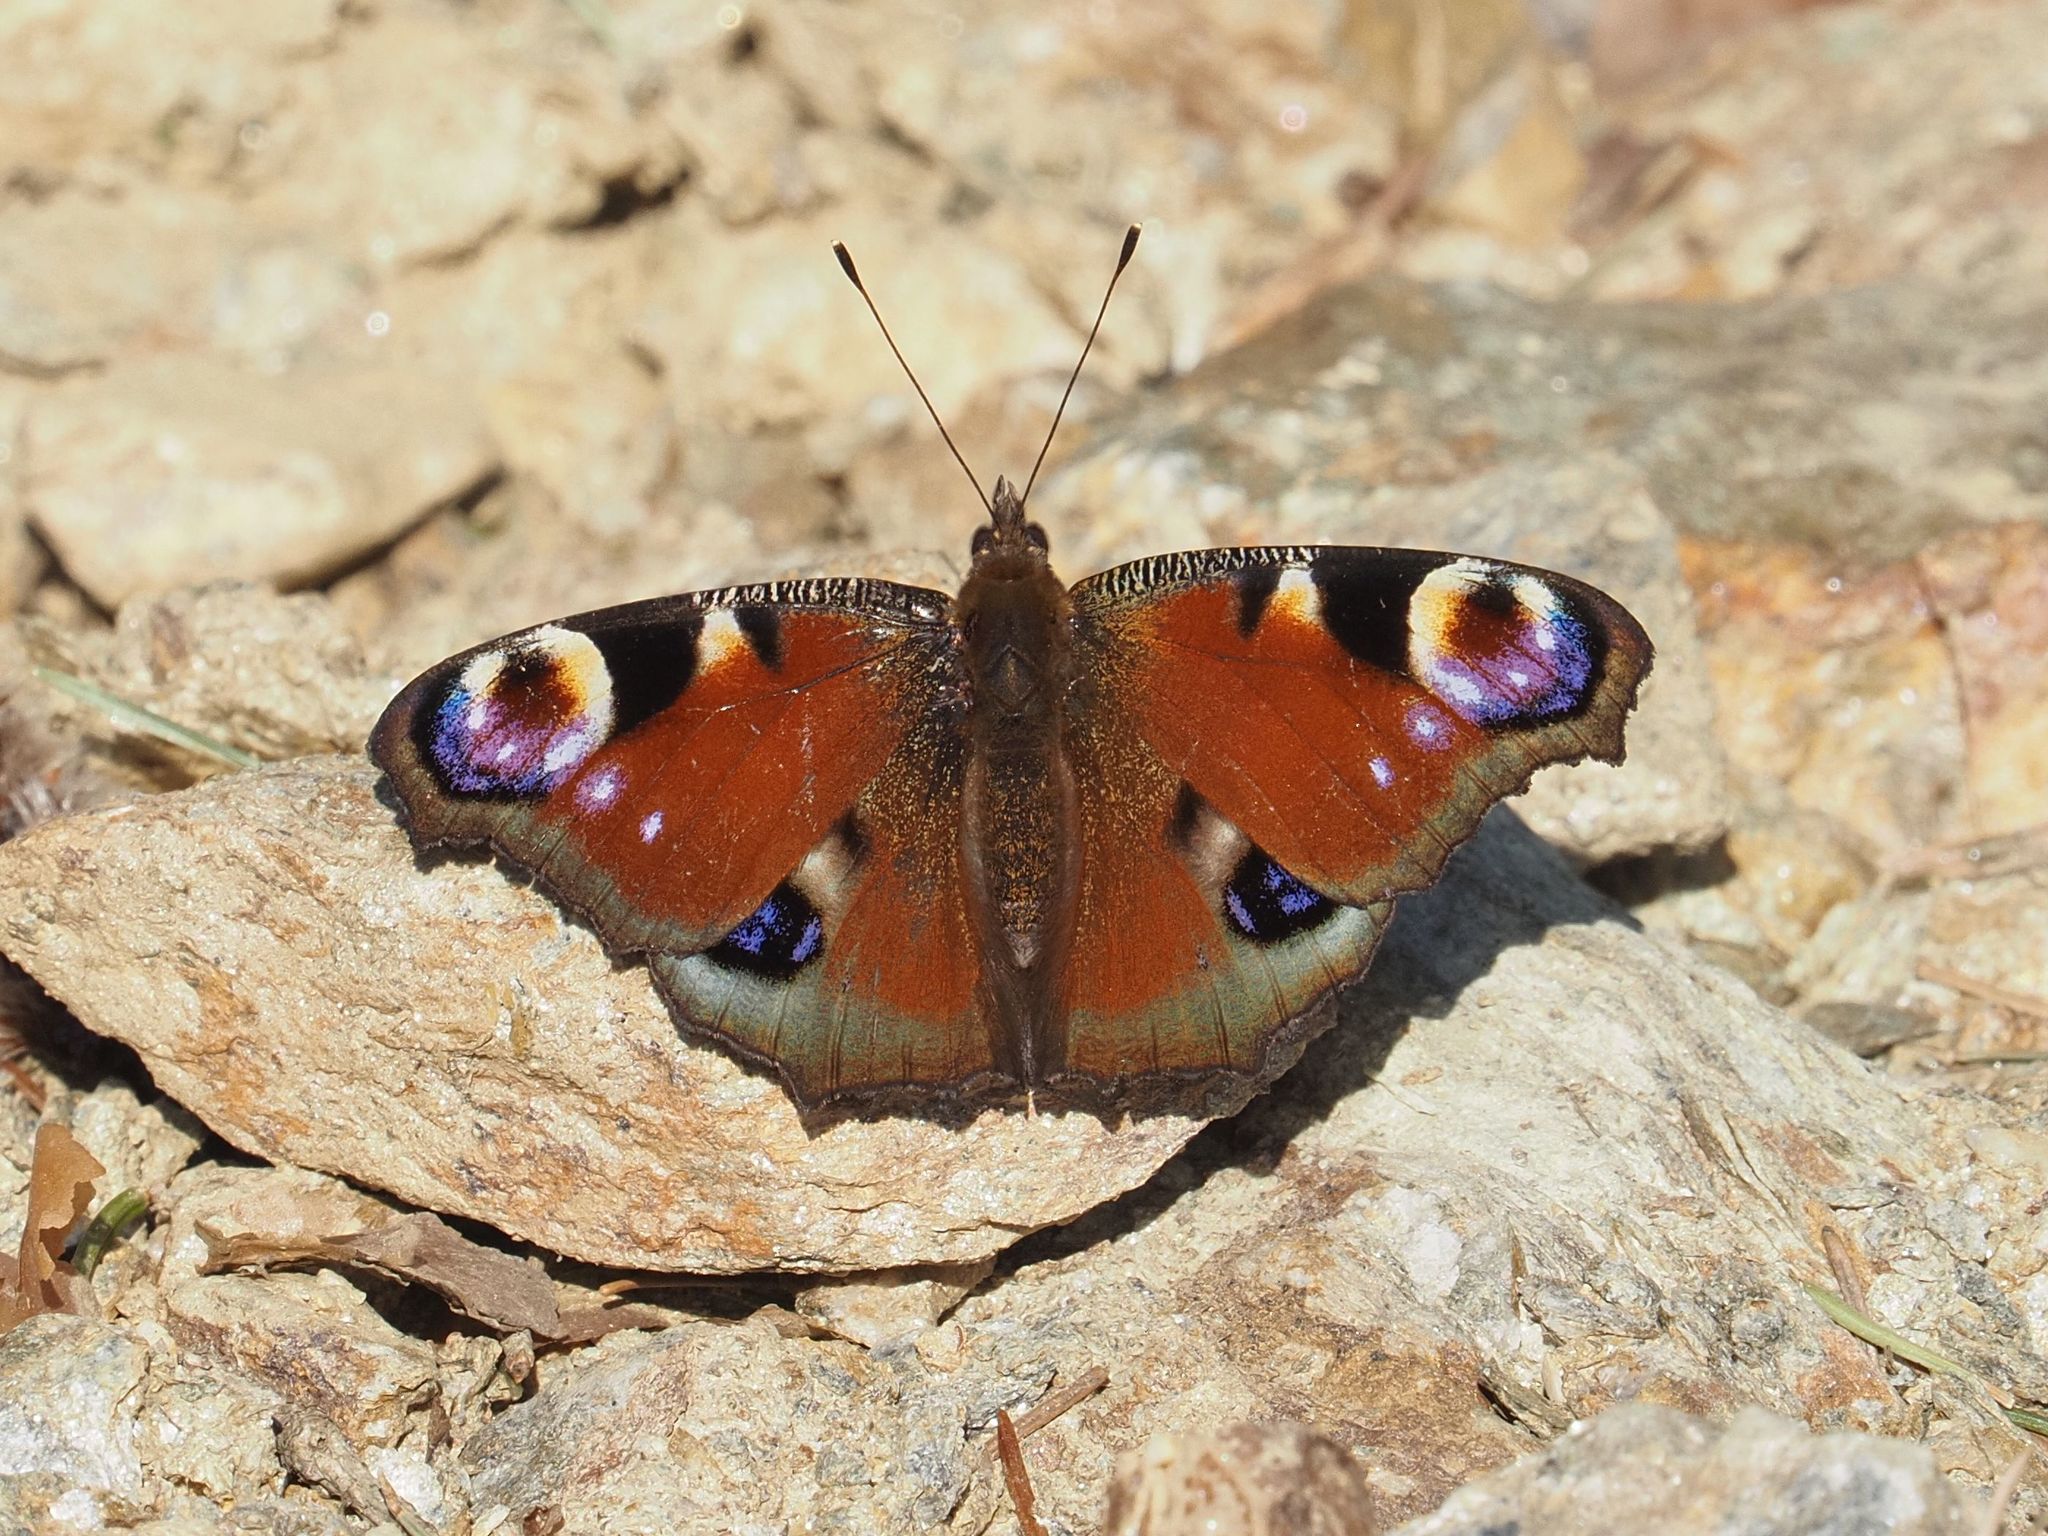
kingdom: Animalia
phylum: Arthropoda
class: Insecta
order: Lepidoptera
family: Nymphalidae
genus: Aglais
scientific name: Aglais io
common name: Peacock
